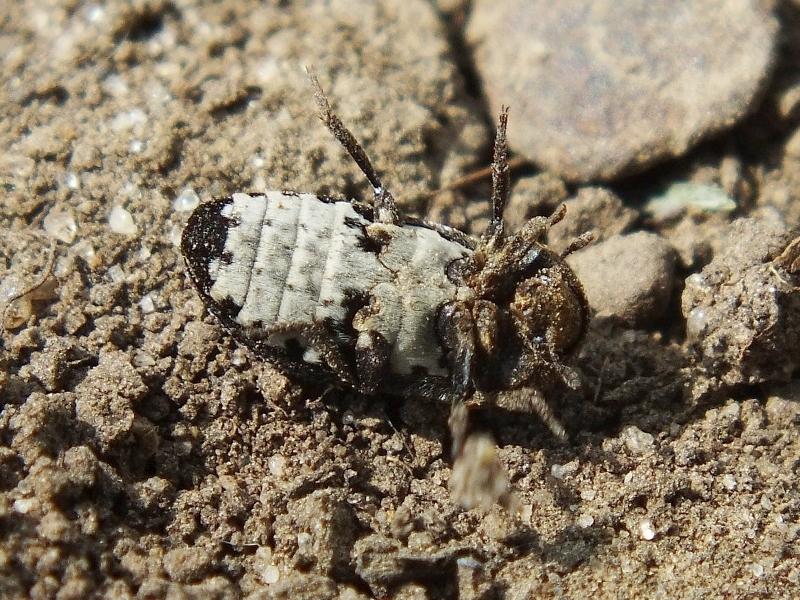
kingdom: Animalia
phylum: Arthropoda
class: Insecta
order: Coleoptera
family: Dermestidae
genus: Dermestes
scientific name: Dermestes laniarius
